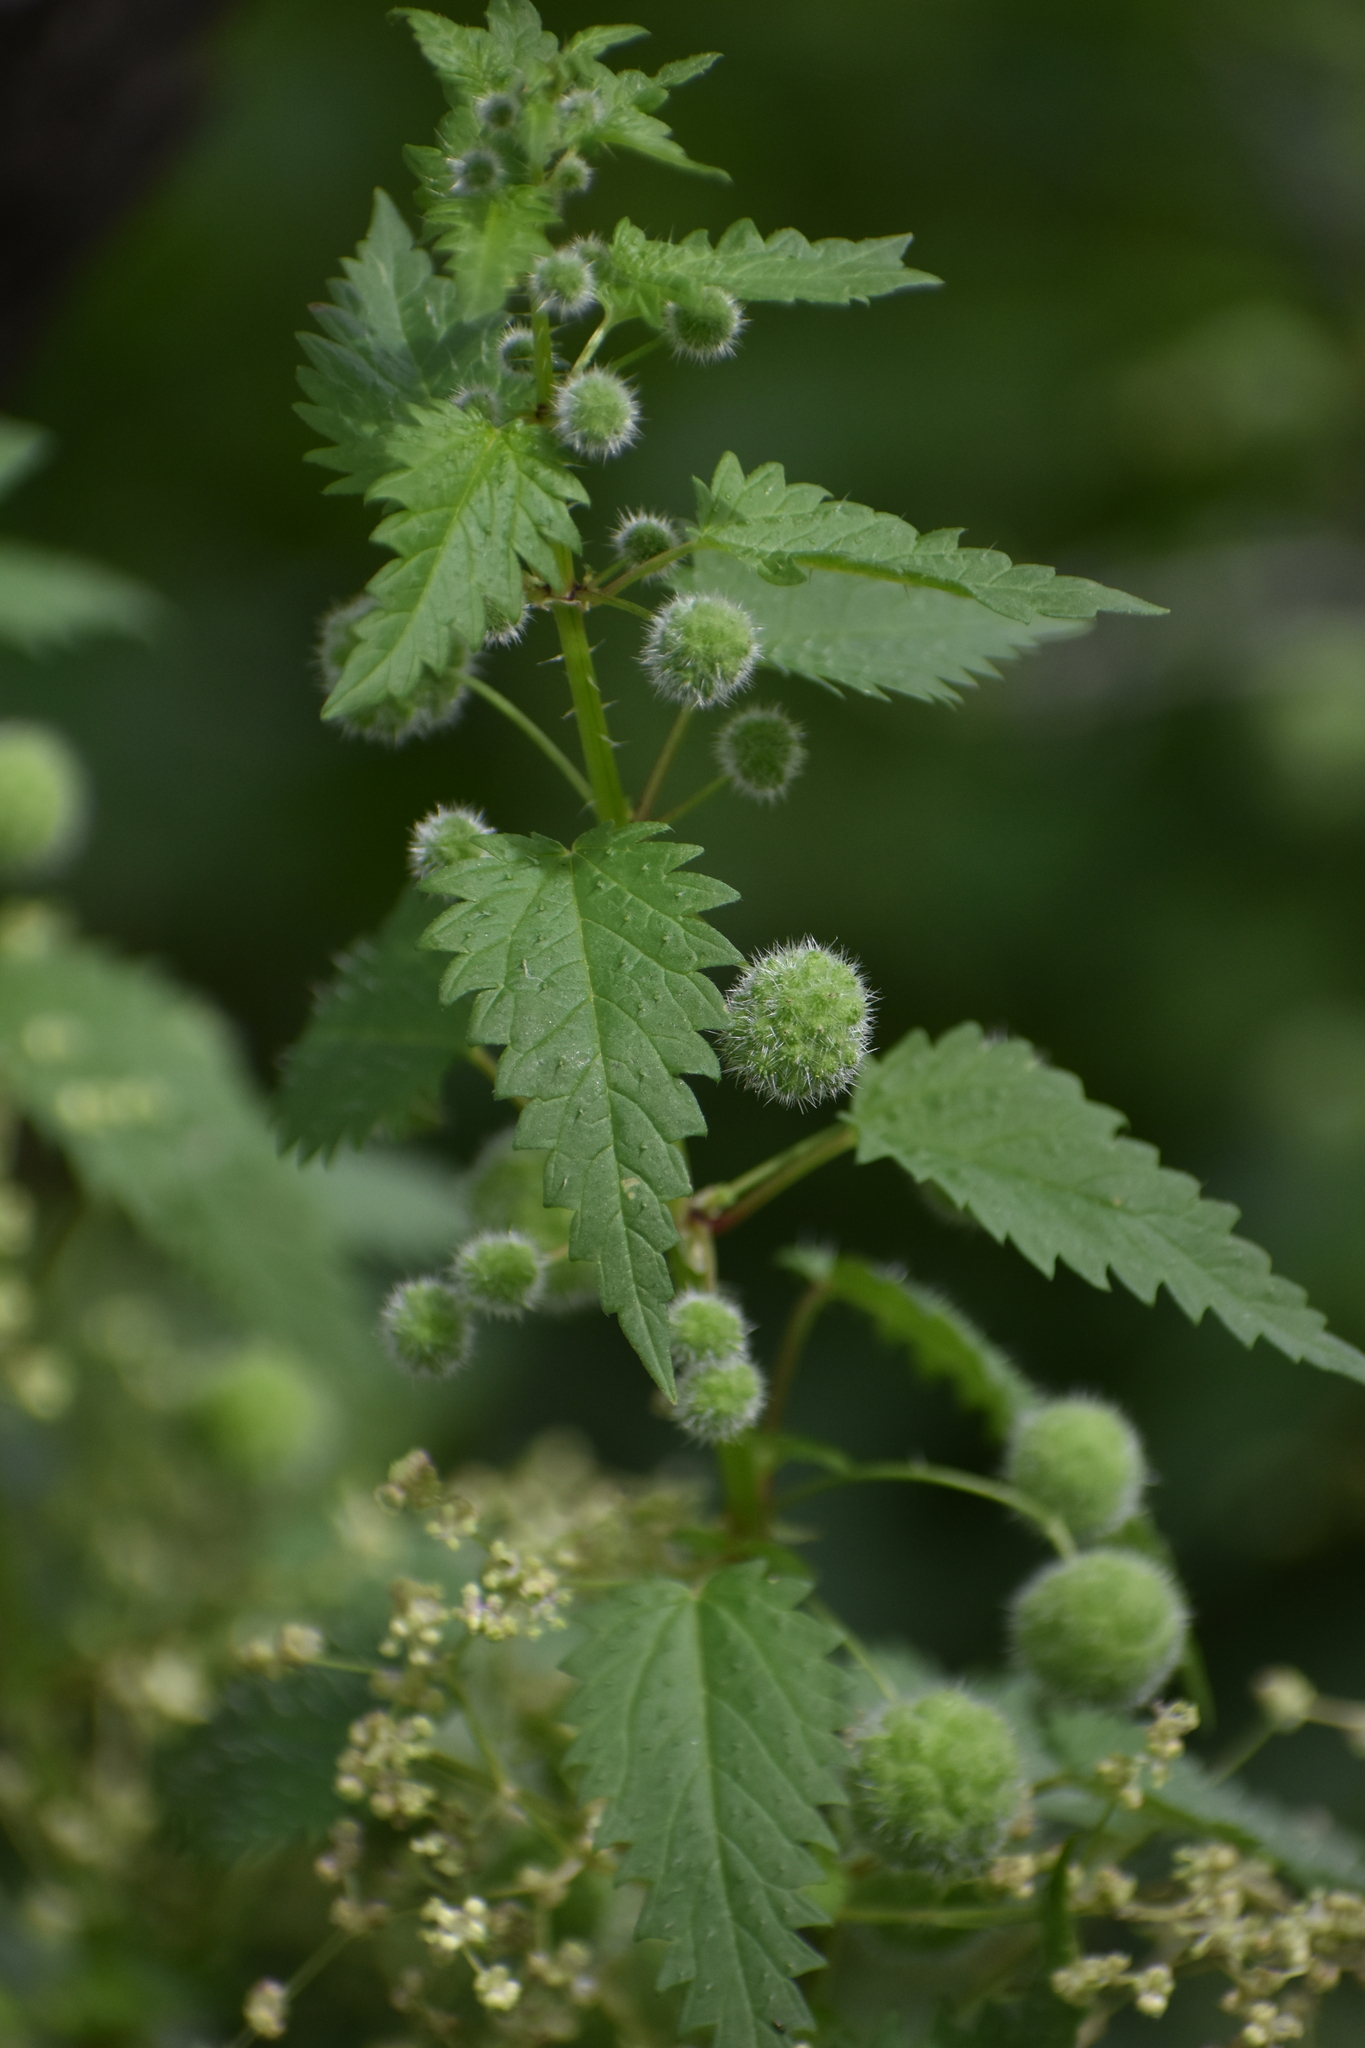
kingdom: Plantae
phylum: Tracheophyta
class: Magnoliopsida
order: Rosales
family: Urticaceae
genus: Urtica
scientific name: Urtica pilulifera
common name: Roman nettle
